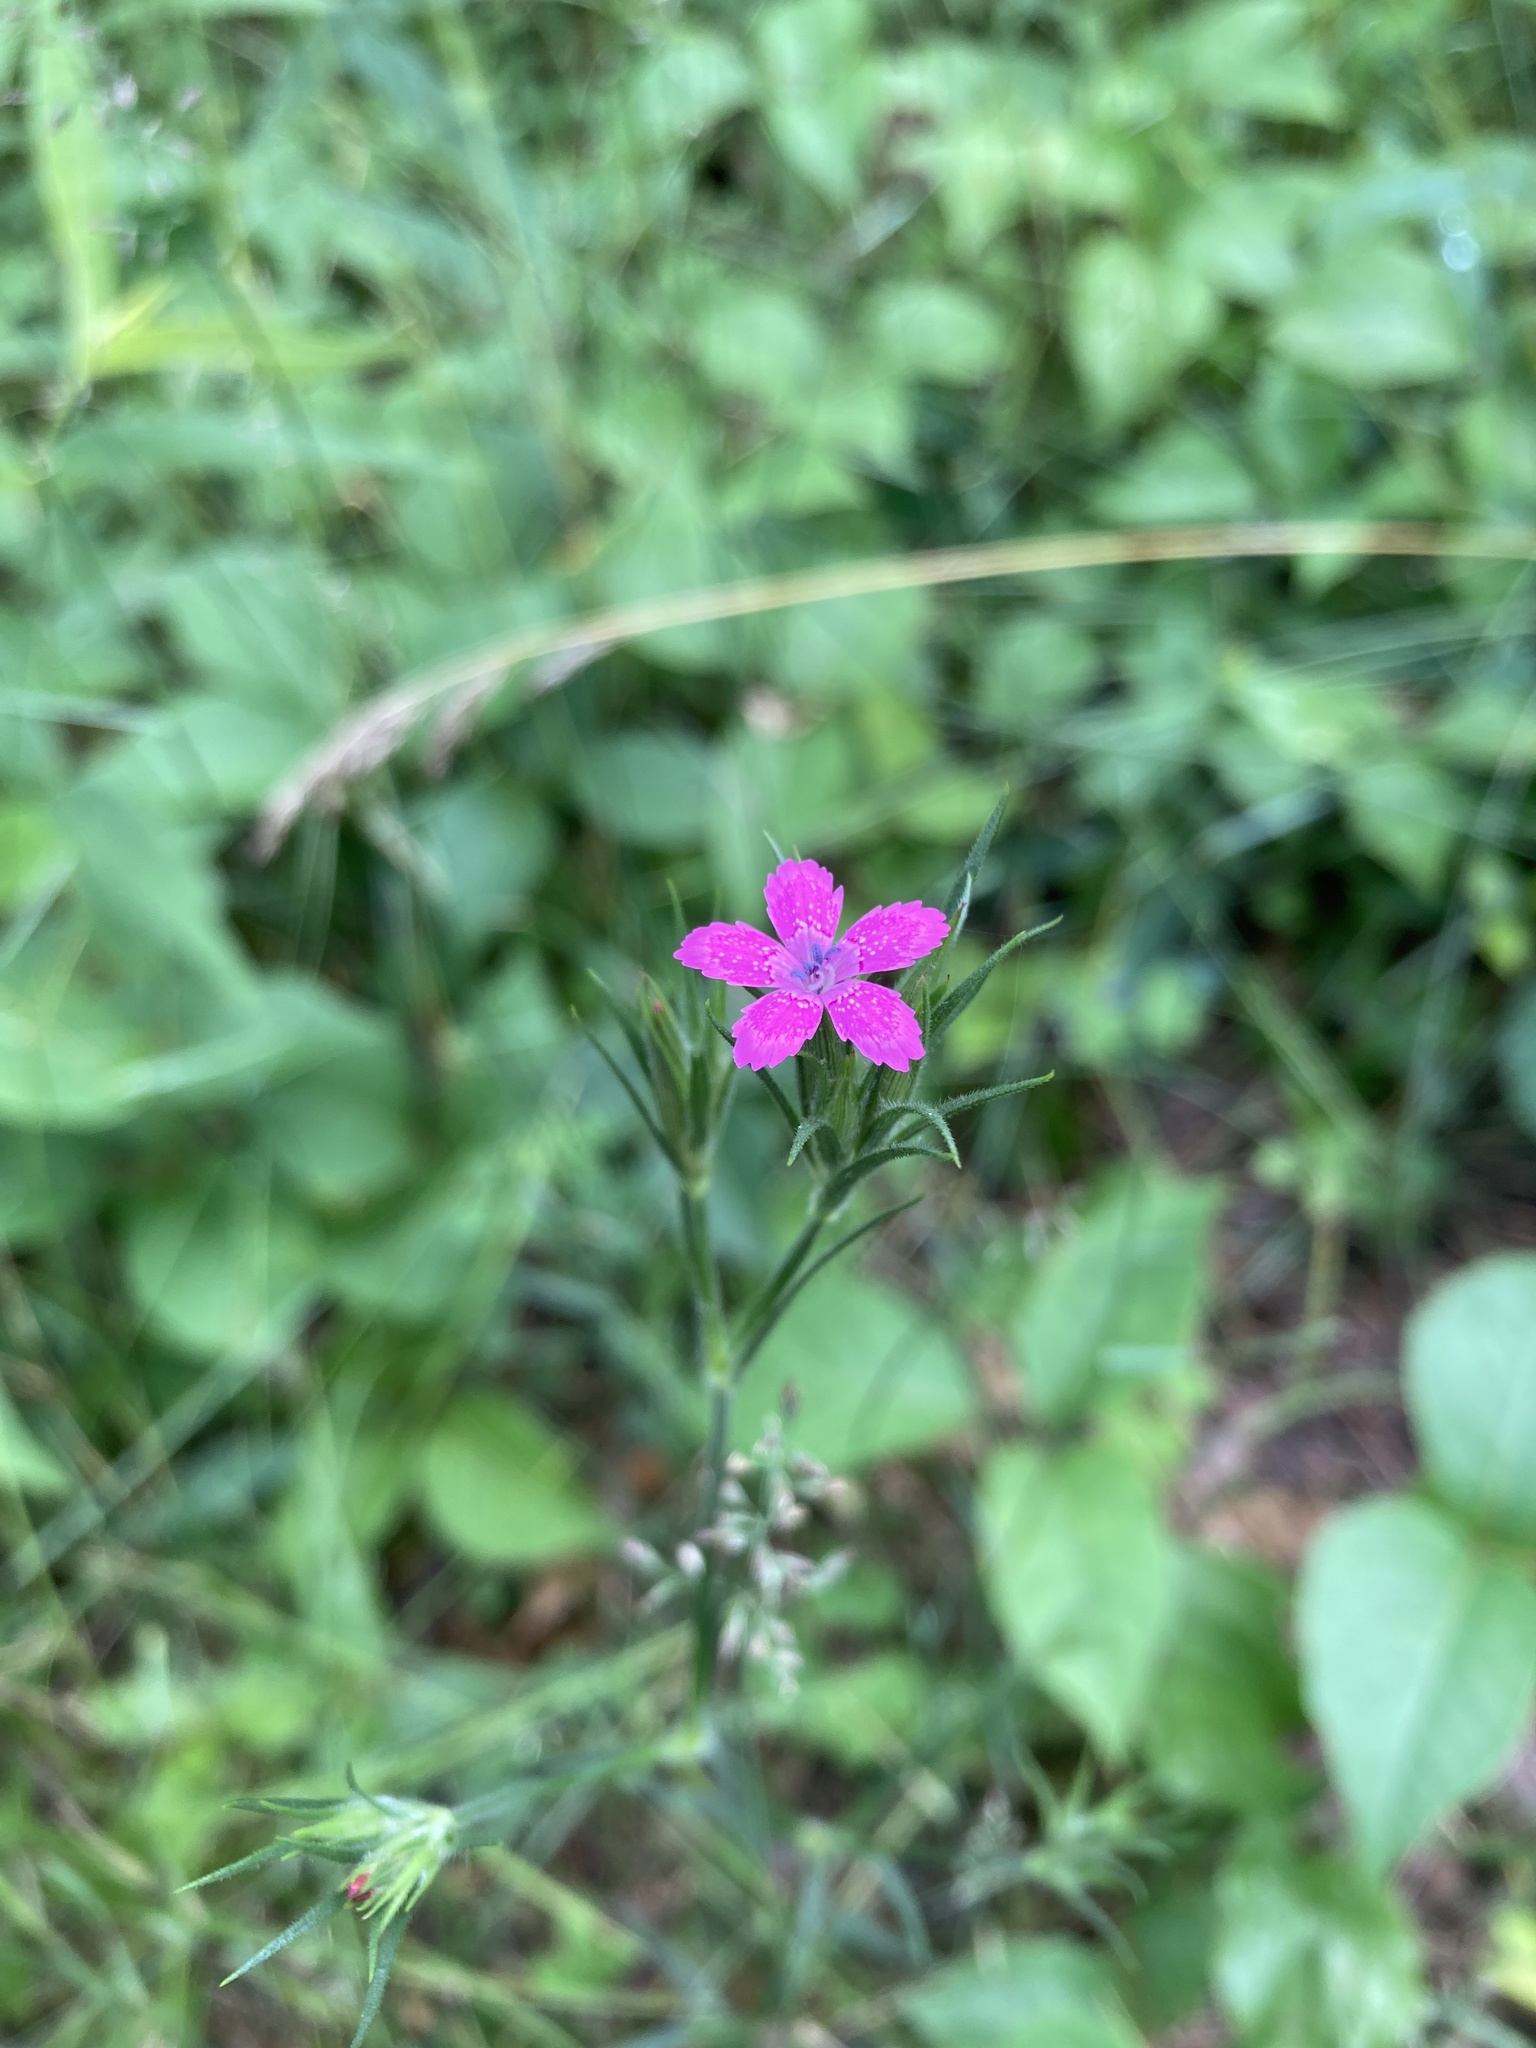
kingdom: Plantae
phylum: Tracheophyta
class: Magnoliopsida
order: Caryophyllales
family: Caryophyllaceae
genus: Dianthus
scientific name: Dianthus armeria
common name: Deptford pink
